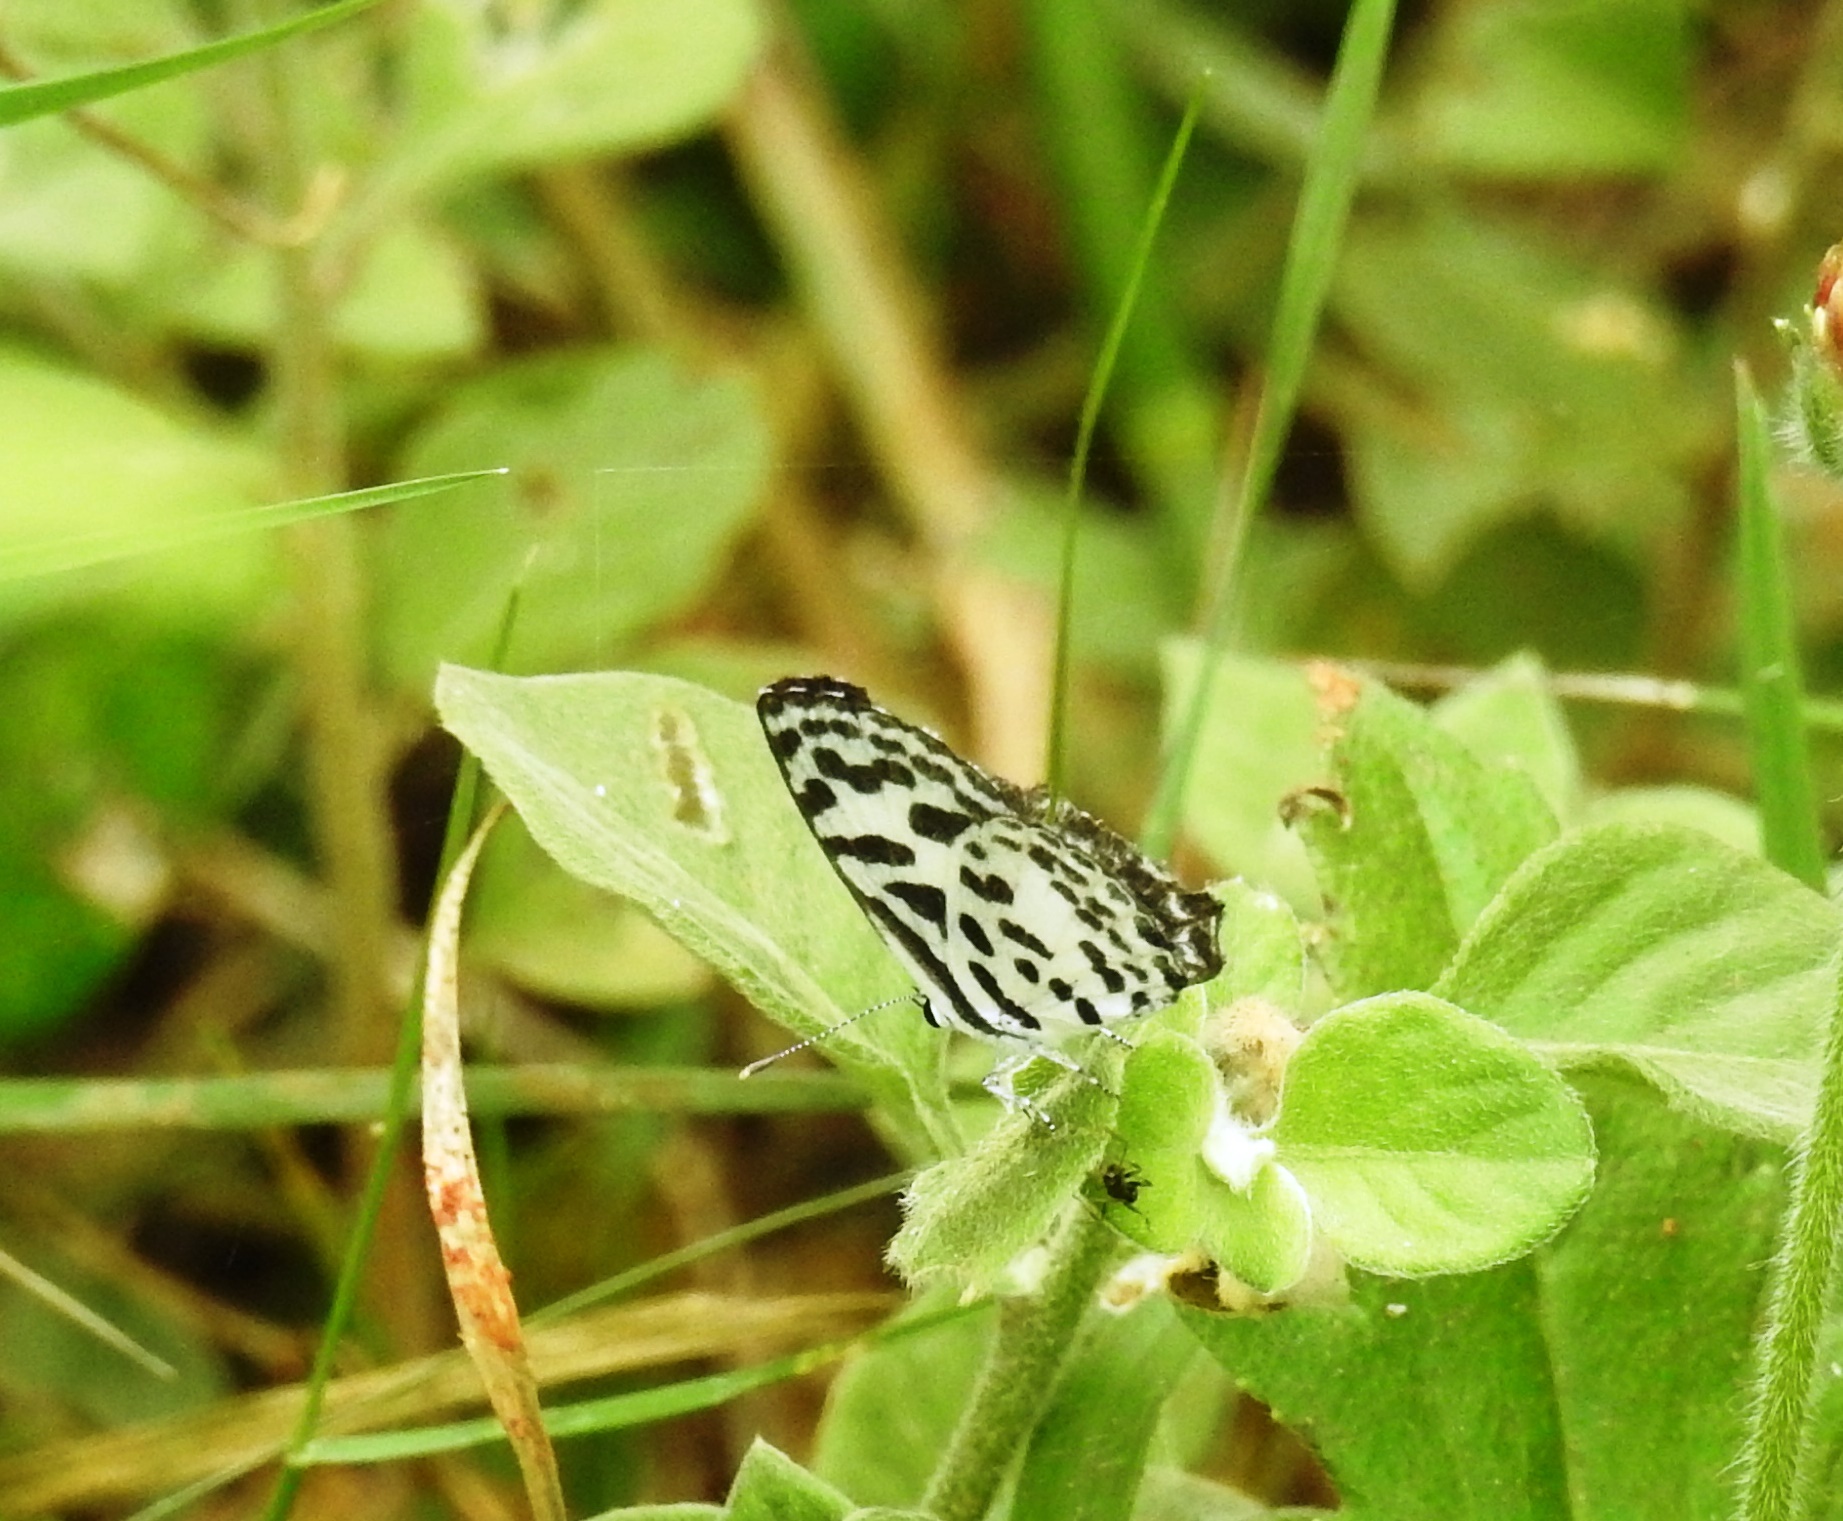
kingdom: Animalia
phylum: Arthropoda
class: Insecta
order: Lepidoptera
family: Lycaenidae
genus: Castalius
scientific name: Castalius rosimon
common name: Common pierrot
